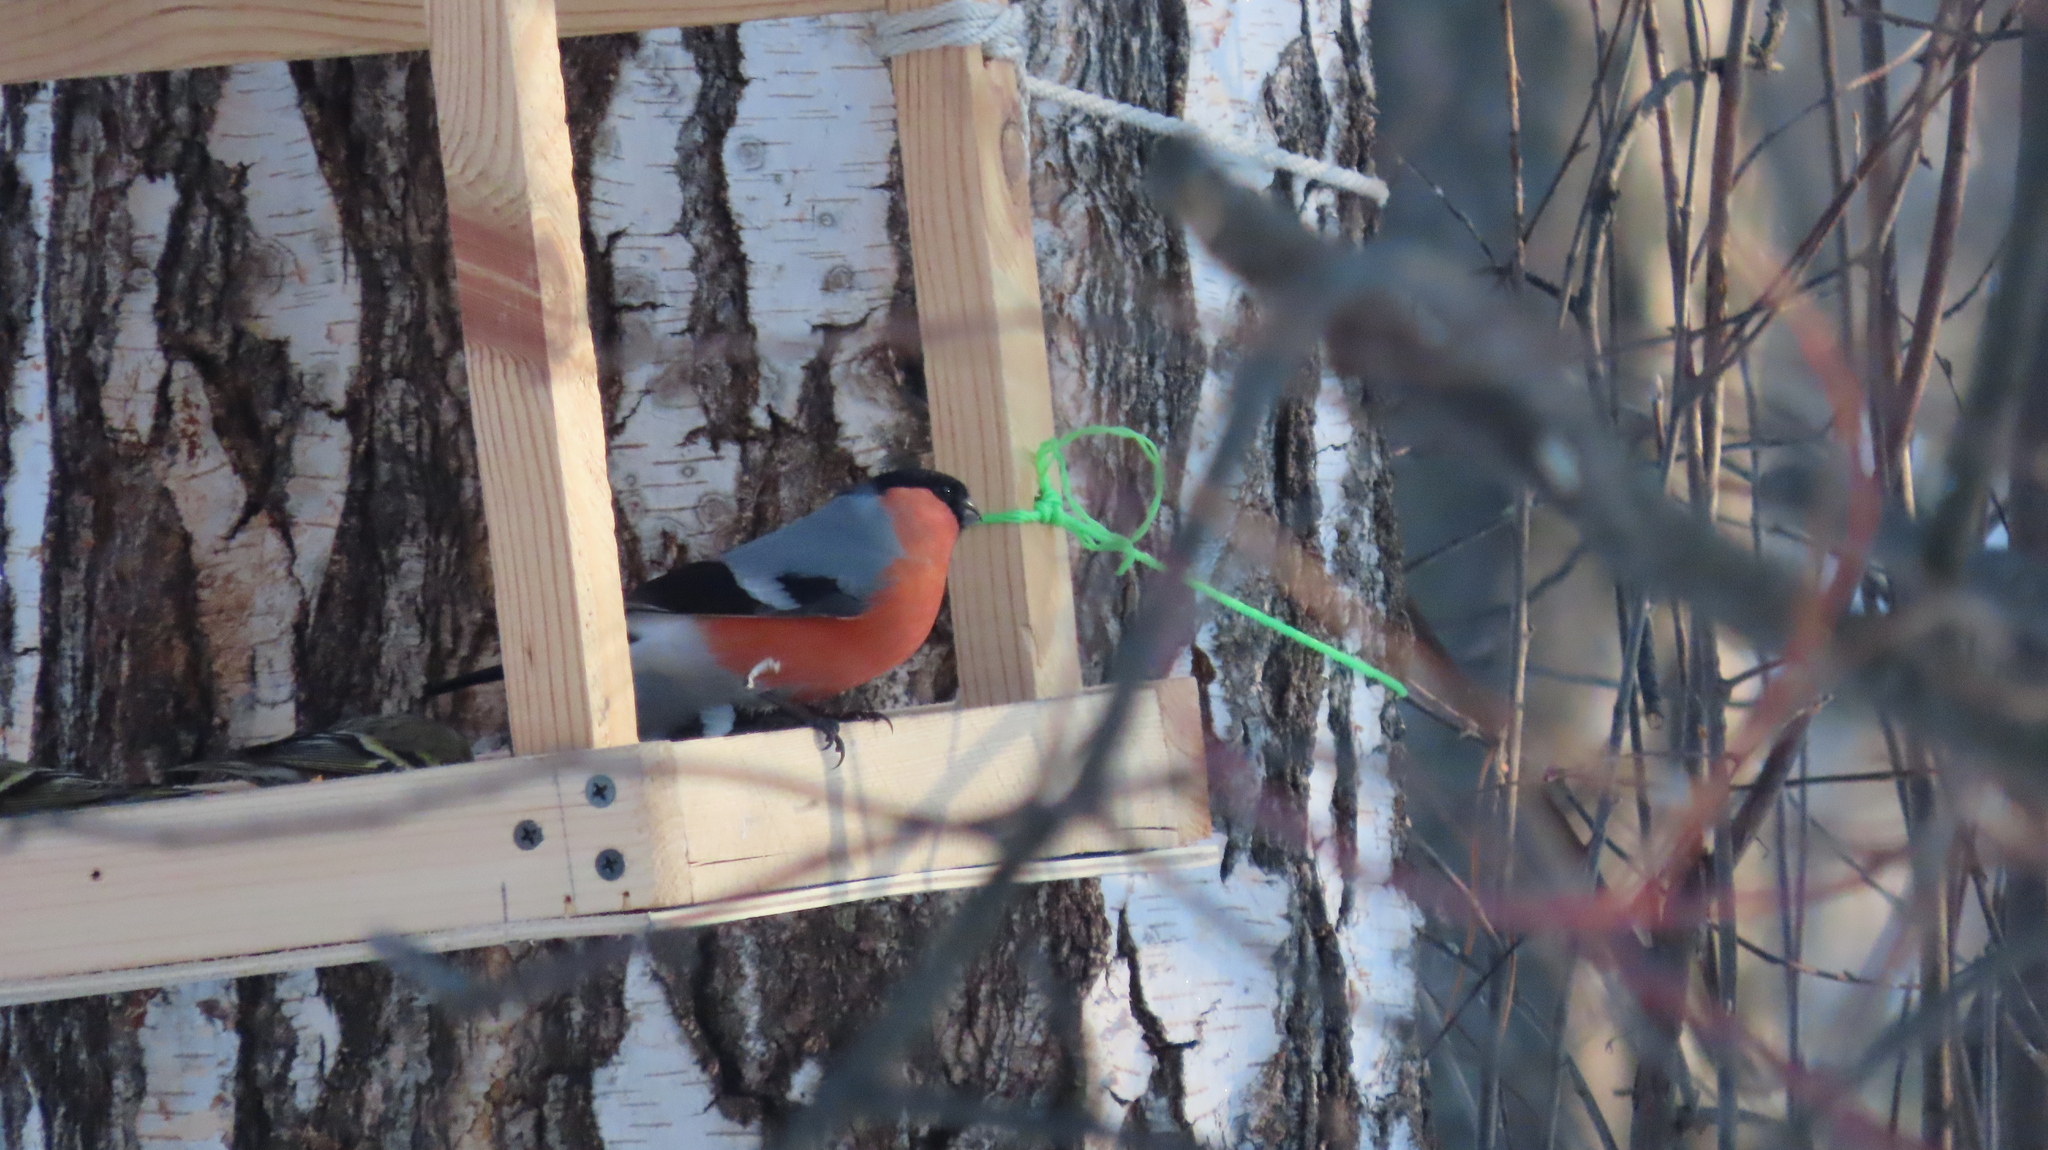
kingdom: Animalia
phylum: Chordata
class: Aves
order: Passeriformes
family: Fringillidae
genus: Pyrrhula
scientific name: Pyrrhula pyrrhula
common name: Eurasian bullfinch
